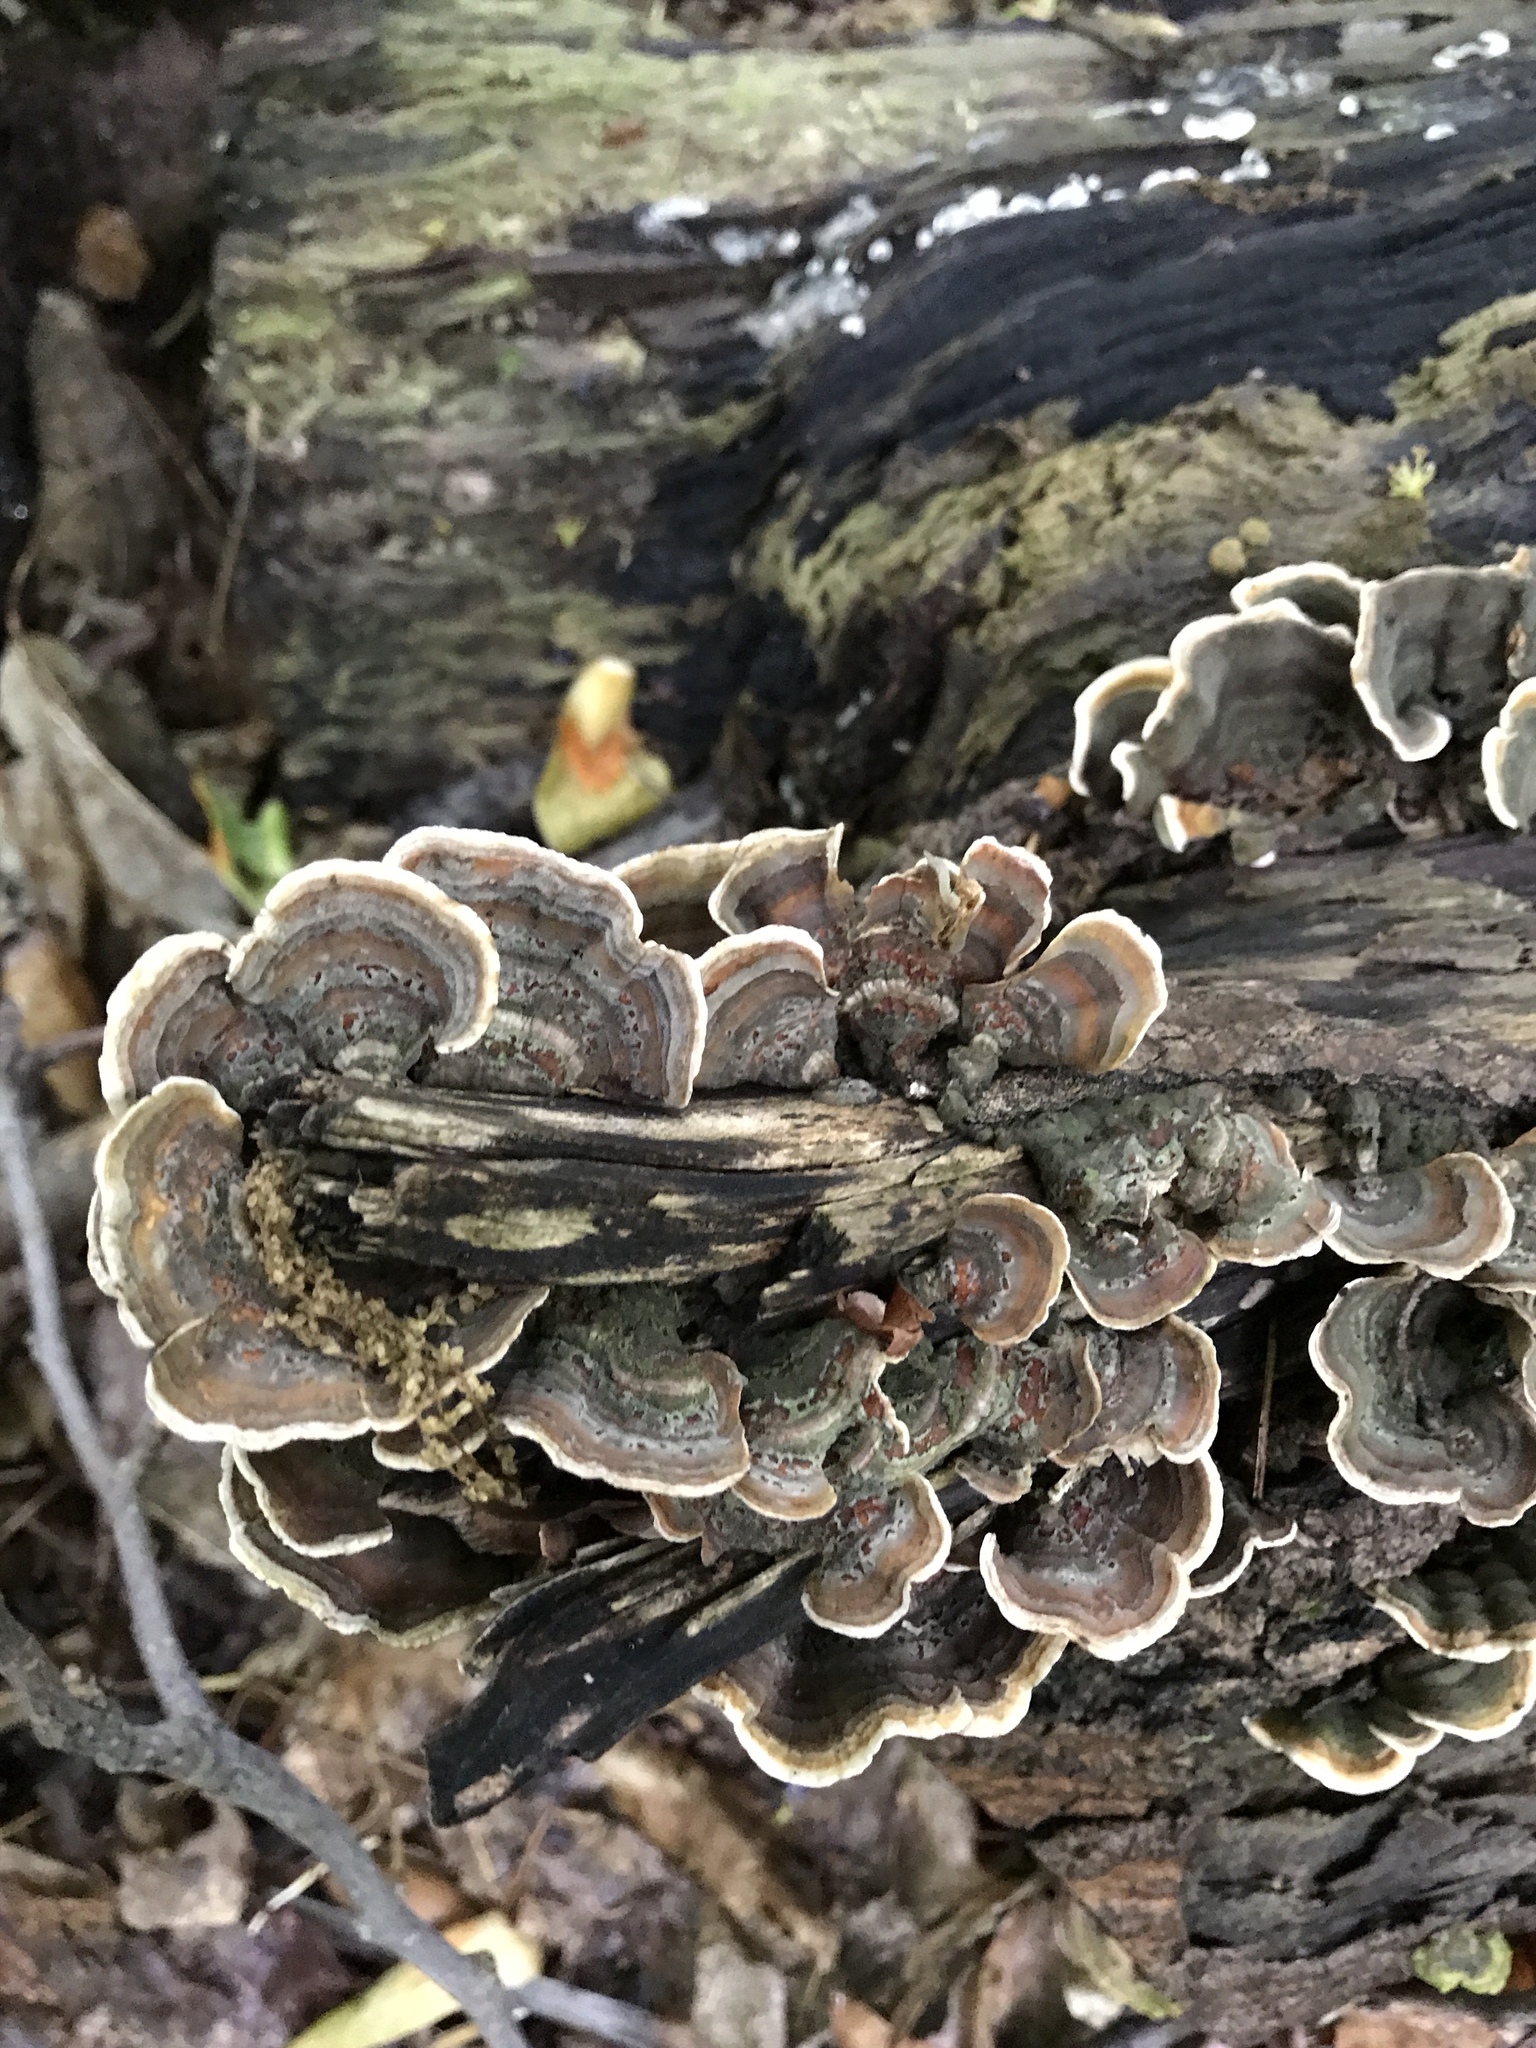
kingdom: Fungi
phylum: Basidiomycota
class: Agaricomycetes
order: Polyporales
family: Polyporaceae
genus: Trametes
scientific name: Trametes versicolor
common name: Turkeytail
